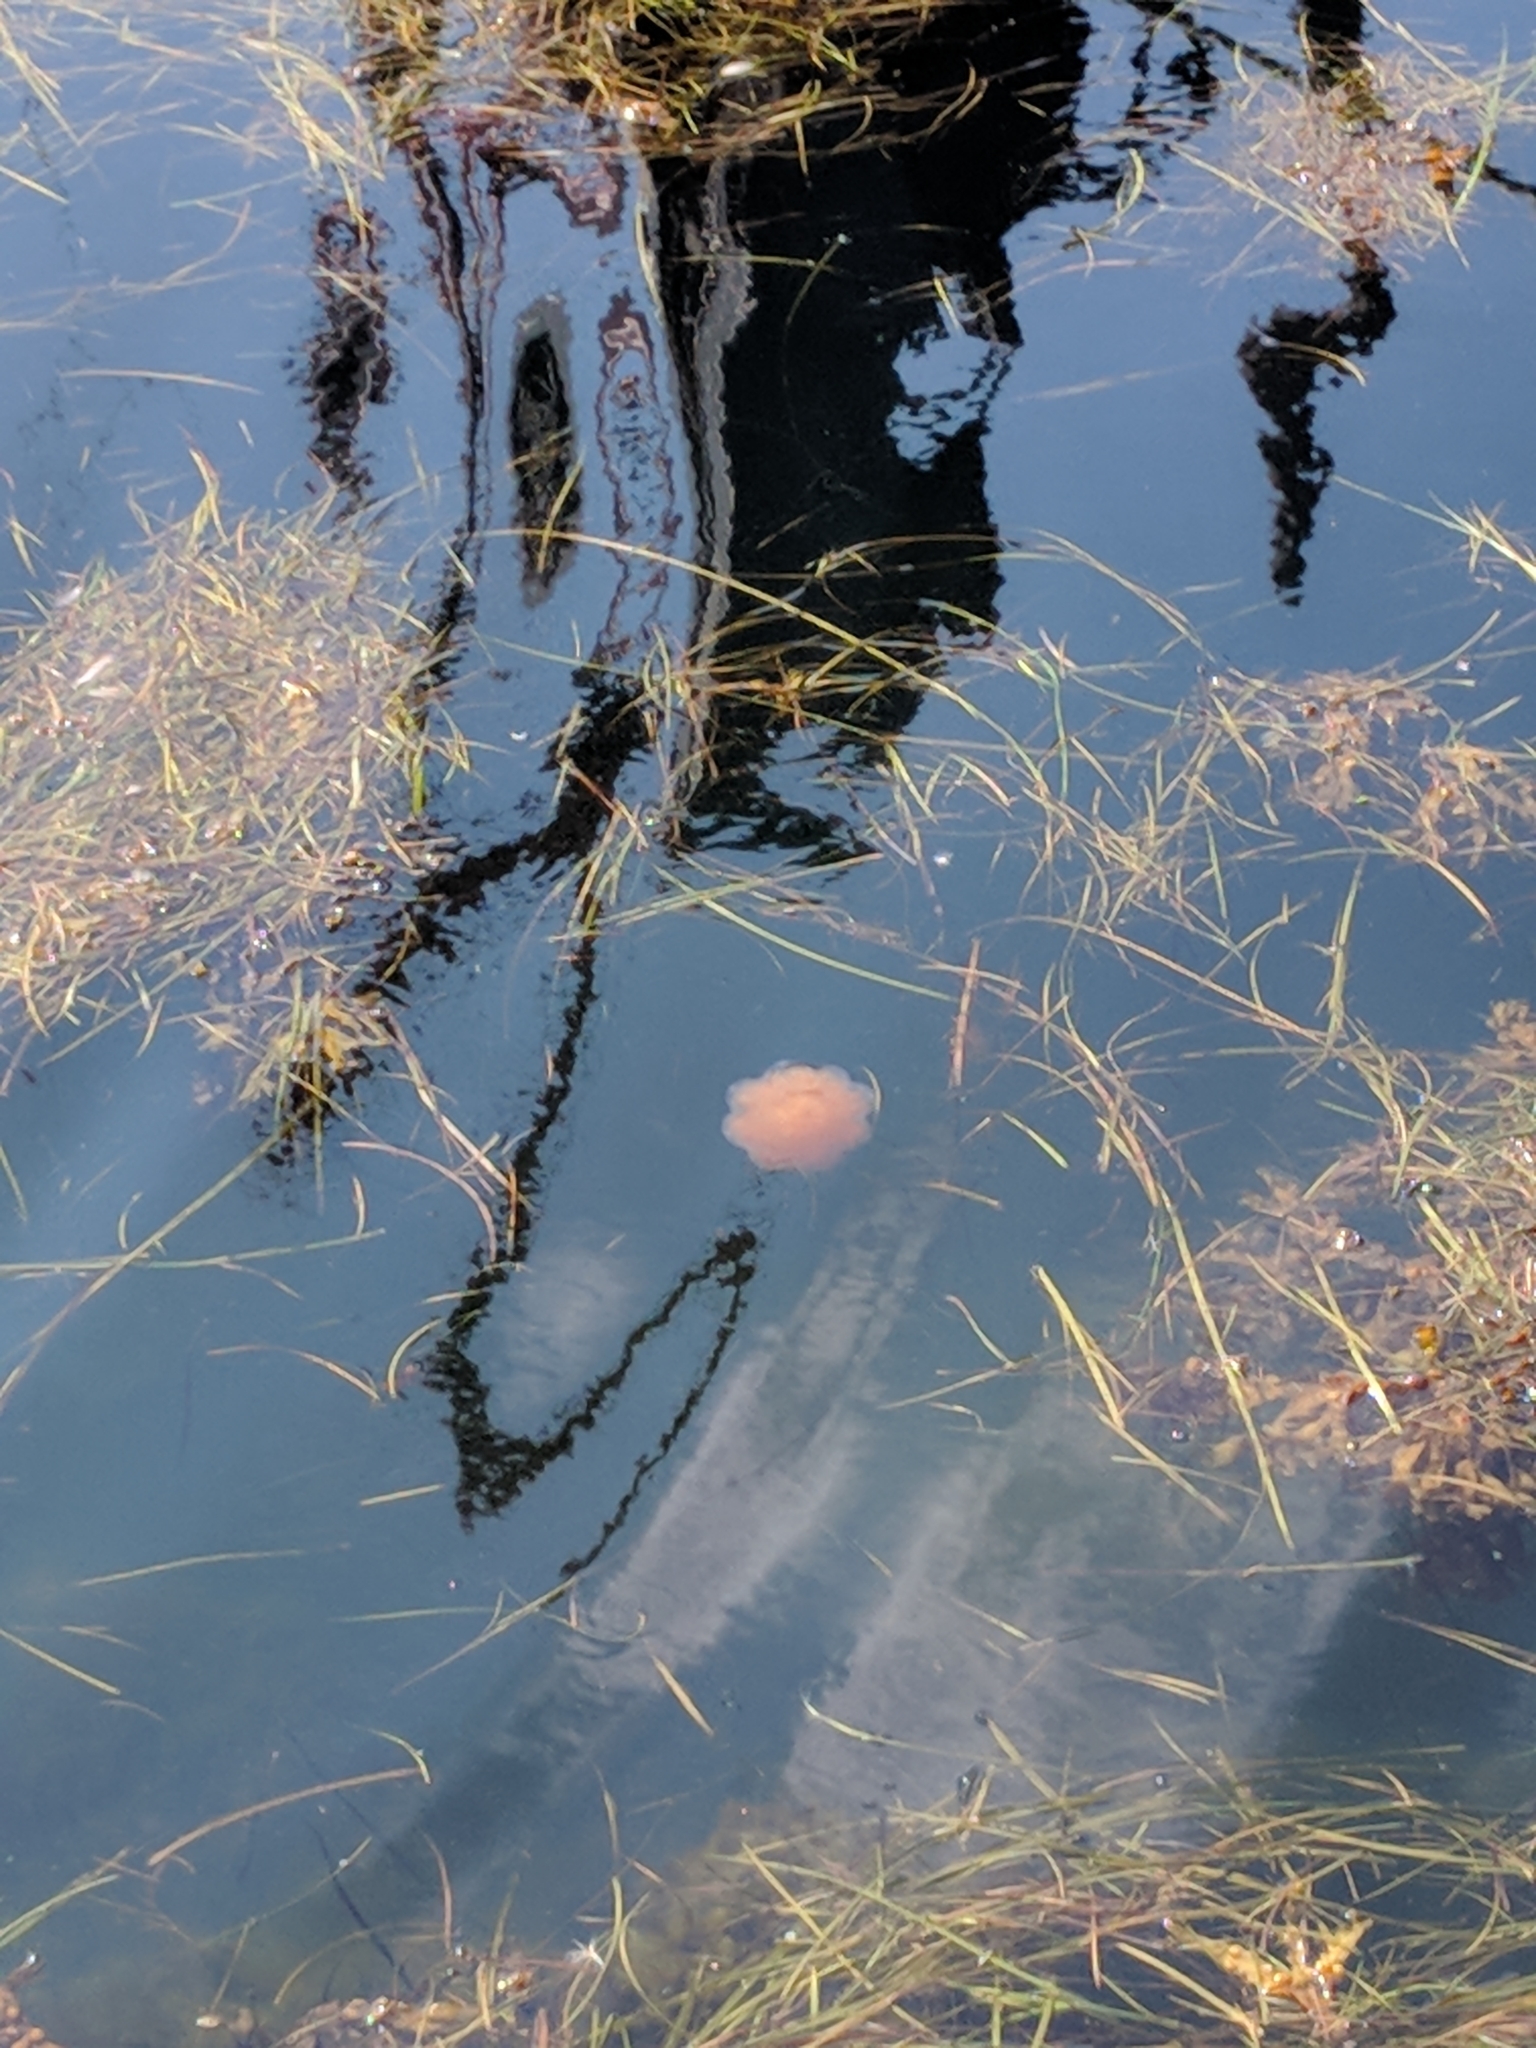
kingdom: Animalia
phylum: Cnidaria
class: Scyphozoa
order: Semaeostomeae
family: Cyaneidae
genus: Cyanea
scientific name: Cyanea capillata
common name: Lion's mane jellyfish
